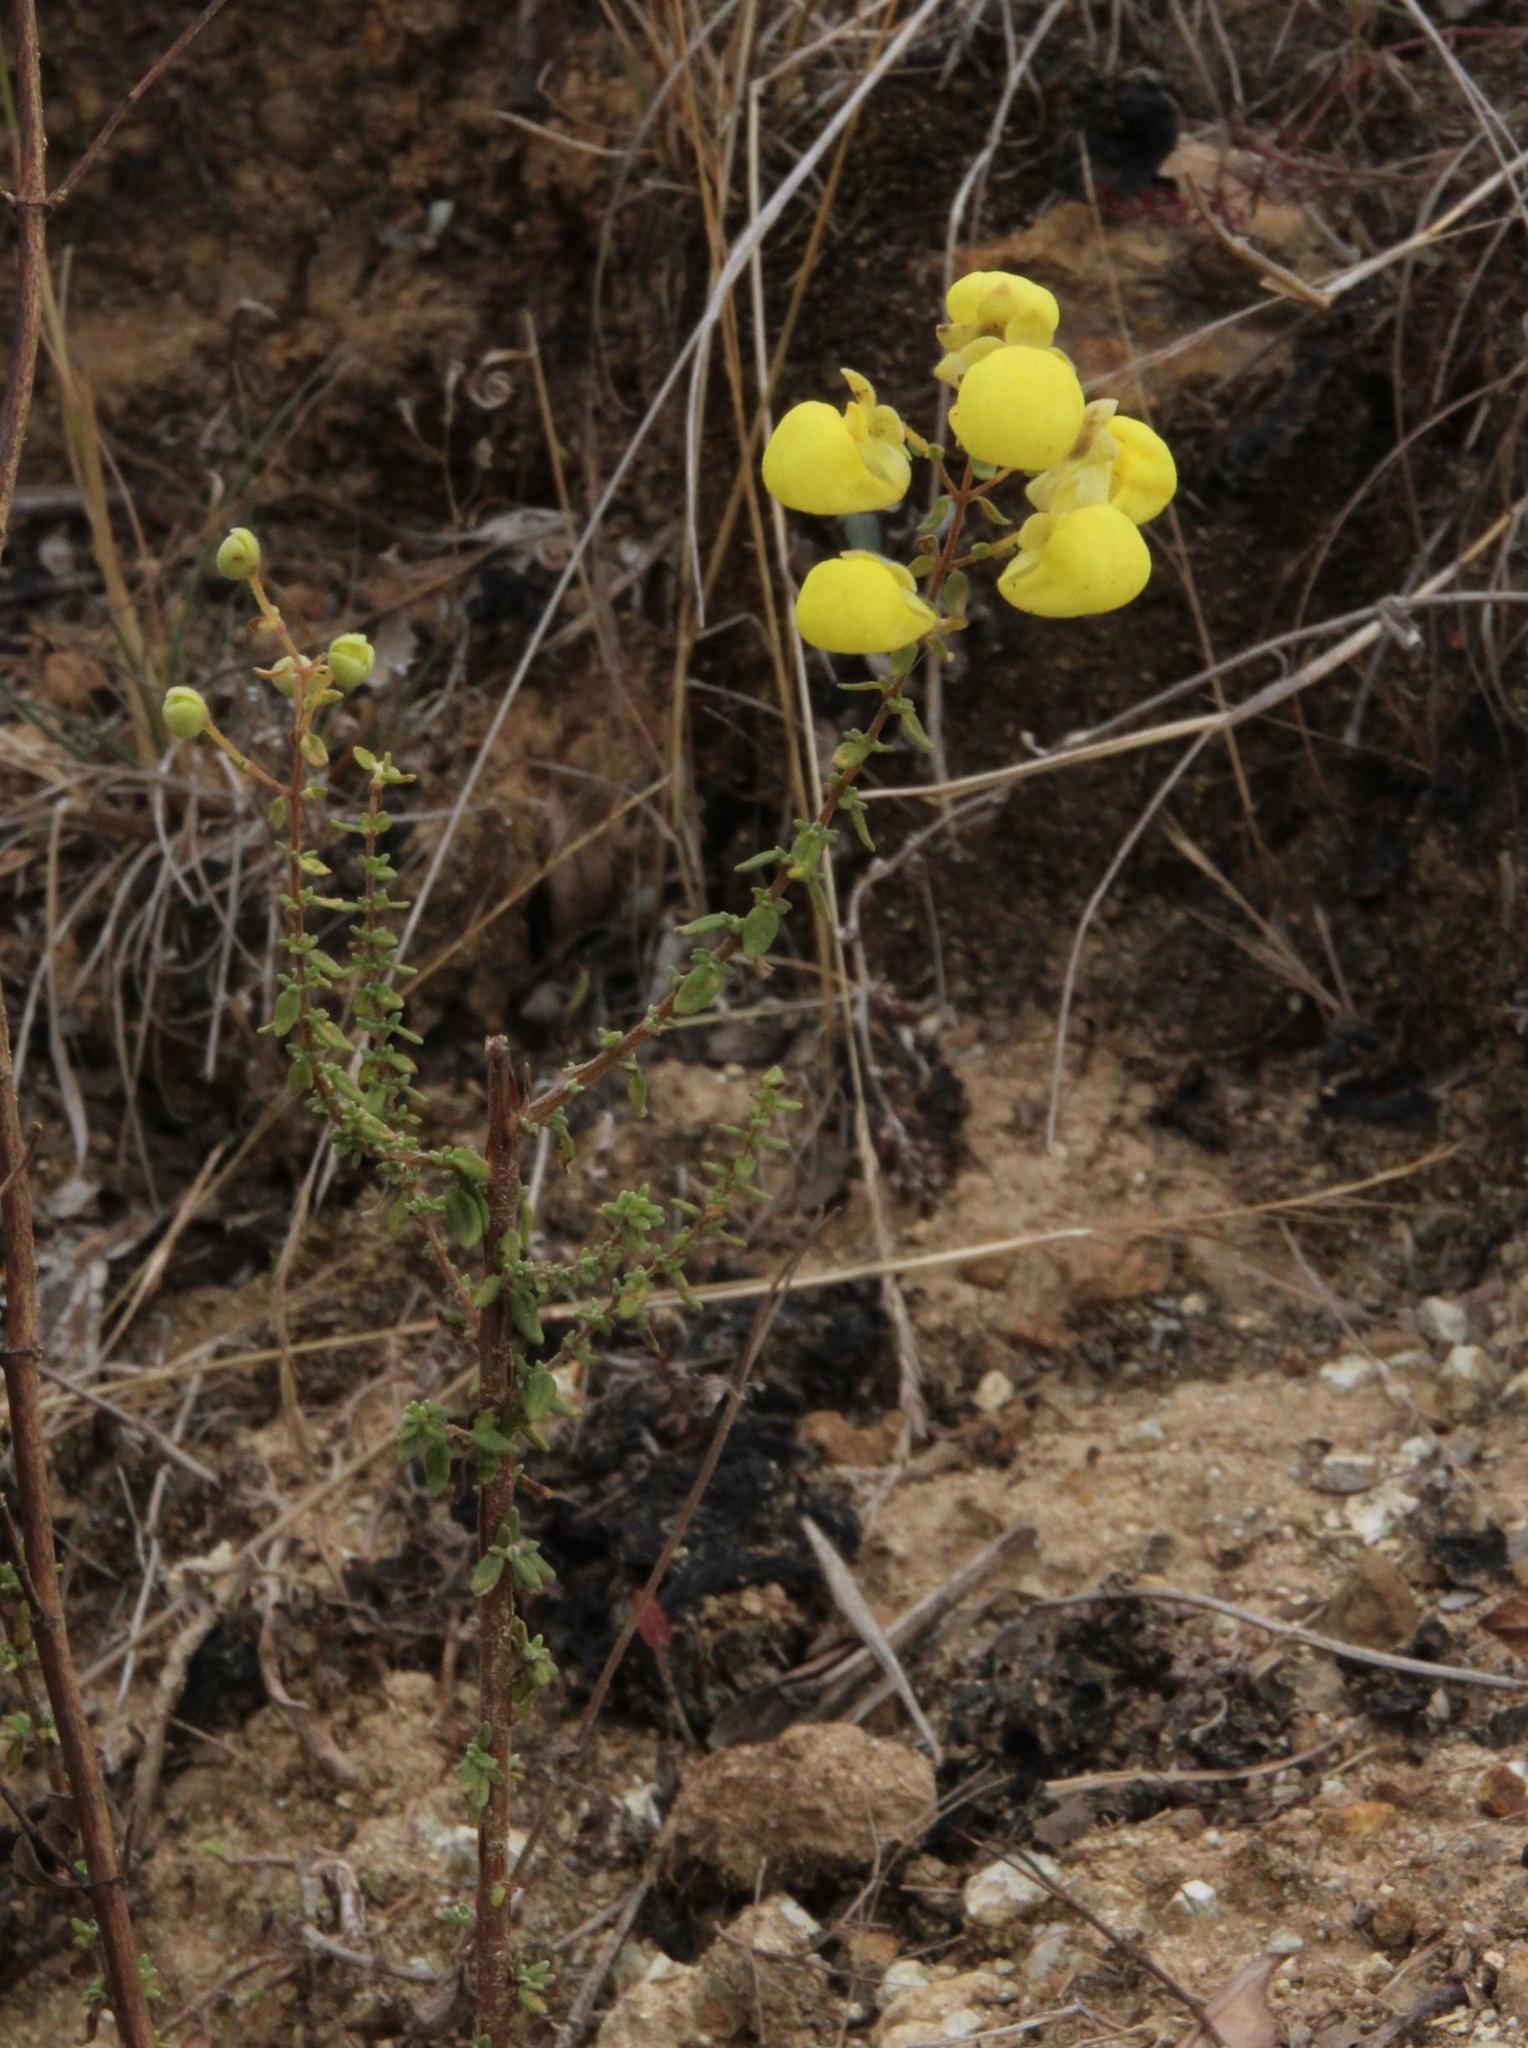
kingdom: Plantae
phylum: Tracheophyta
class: Magnoliopsida
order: Lamiales
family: Calceolariaceae
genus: Calceolaria
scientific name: Calceolaria myriophylla
